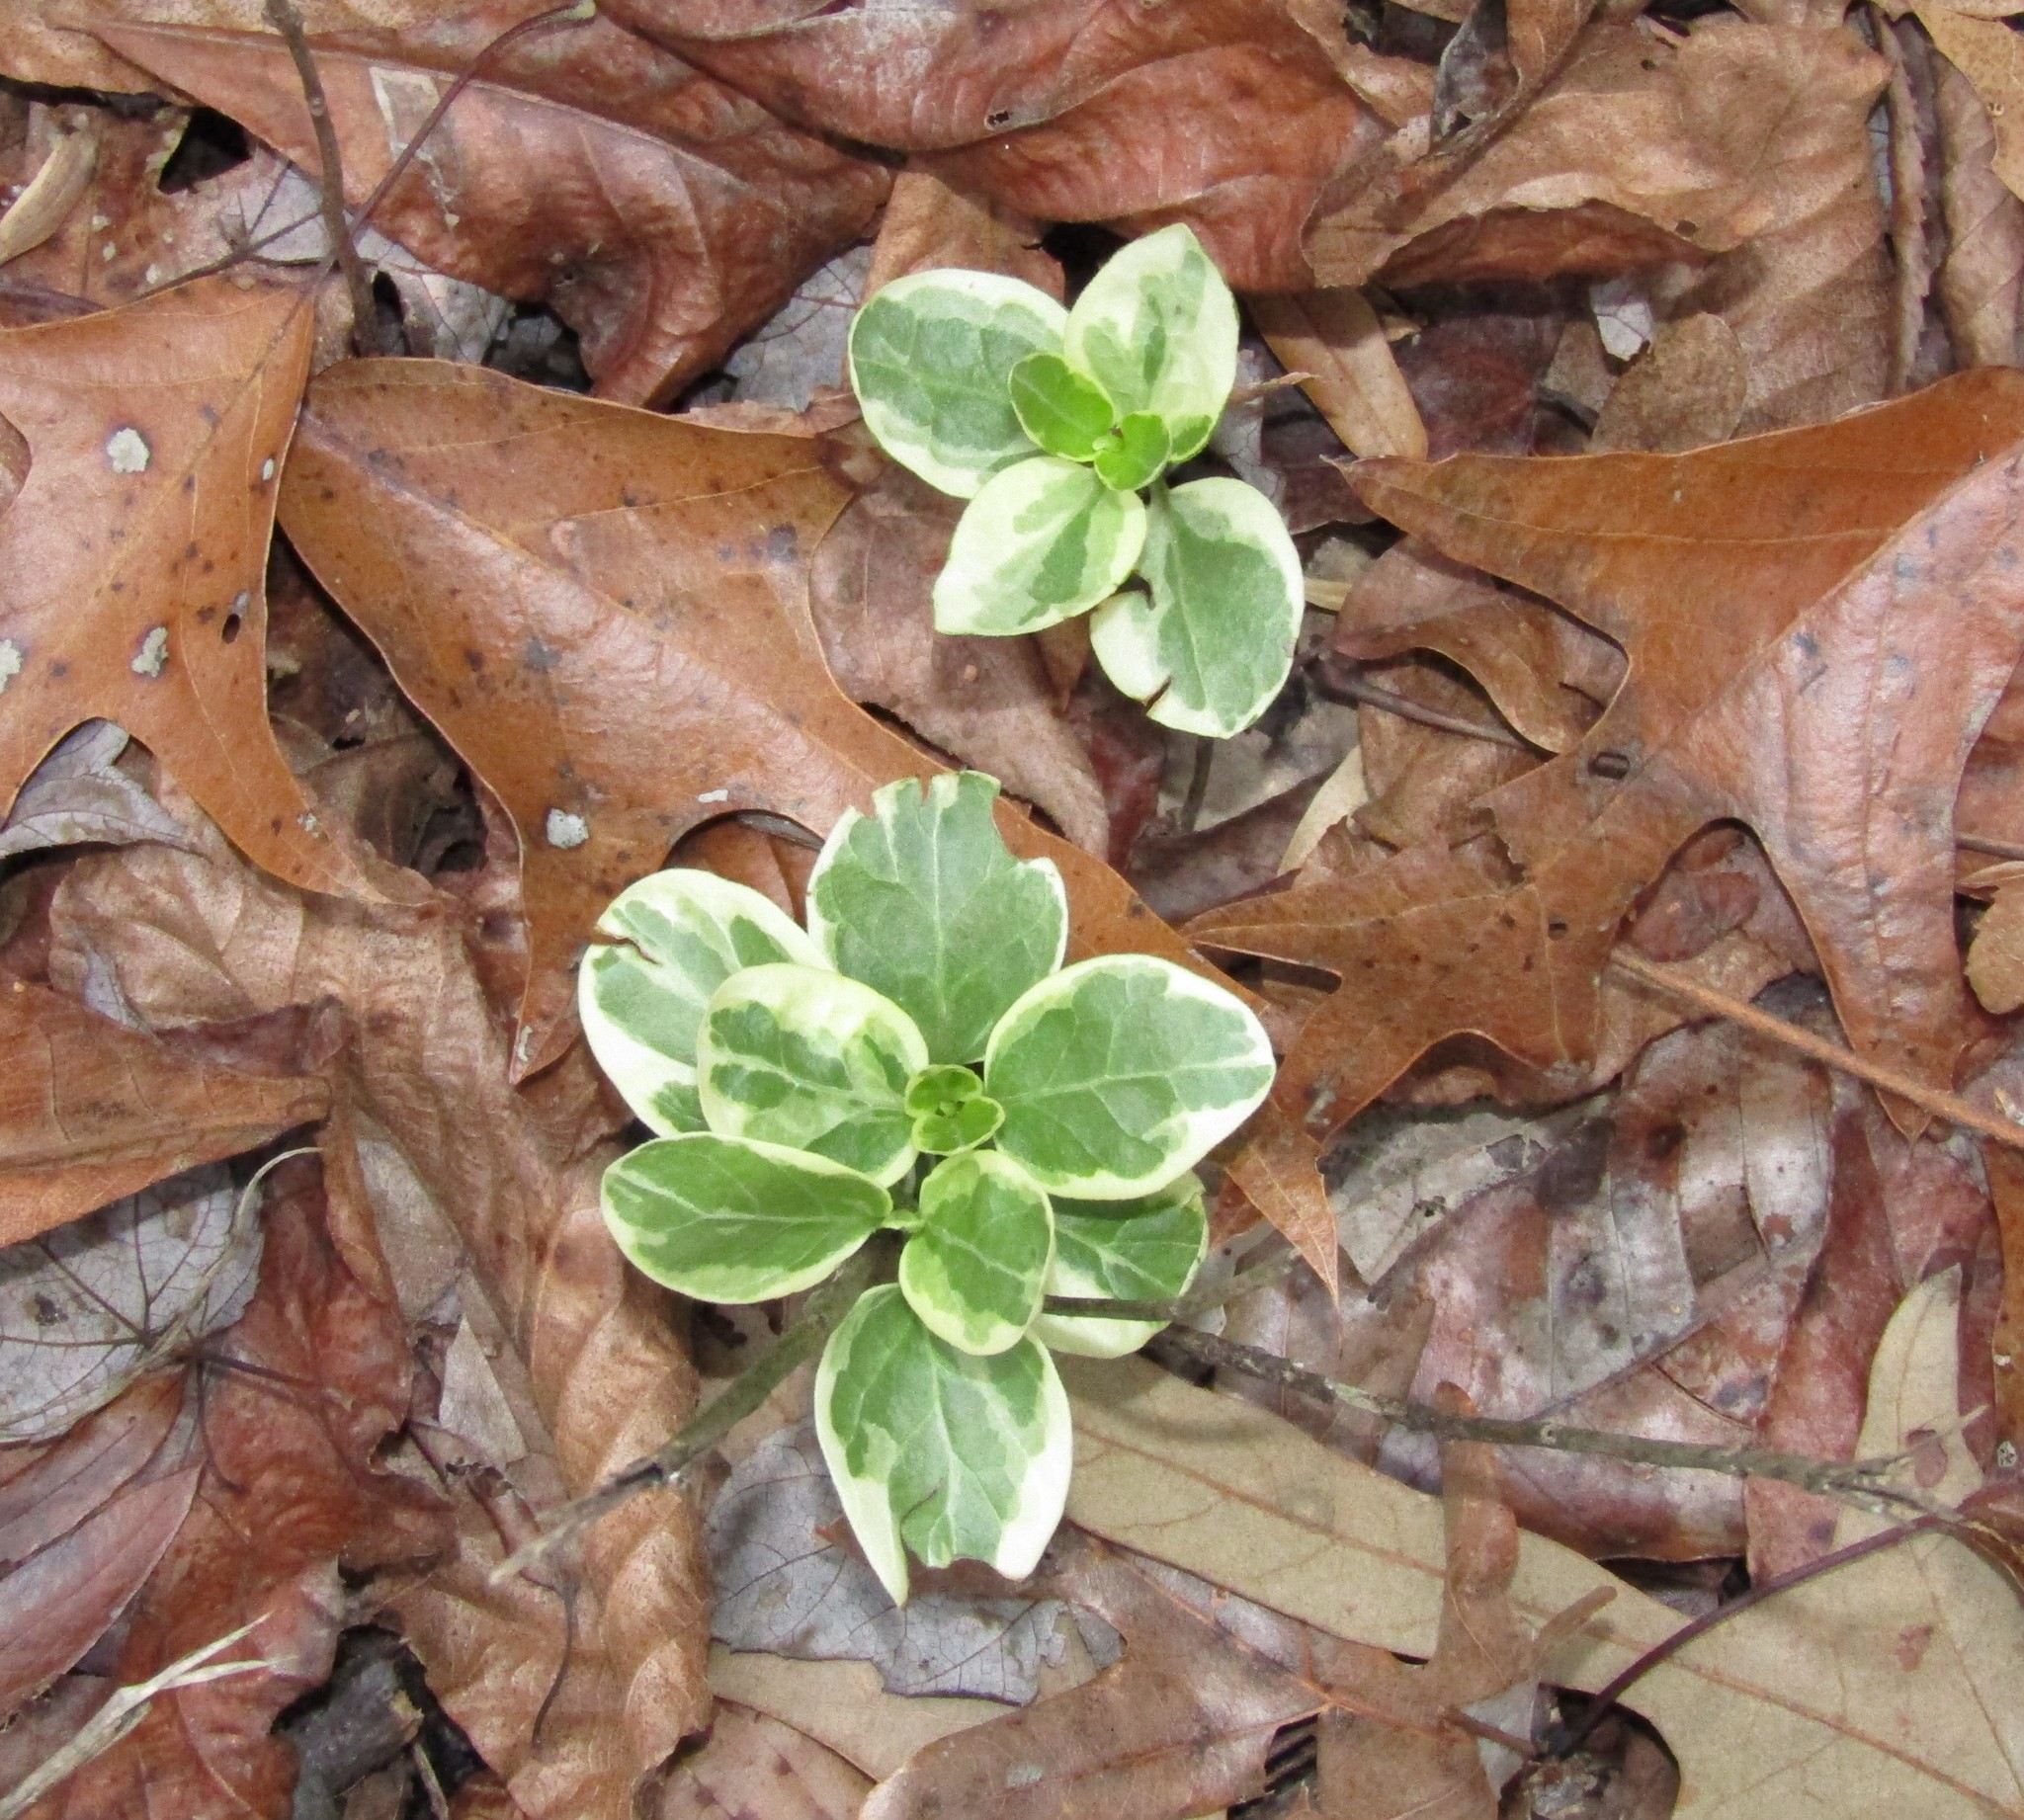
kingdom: Plantae
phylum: Tracheophyta
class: Magnoliopsida
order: Gentianales
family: Apocynaceae
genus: Vinca
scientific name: Vinca major
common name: Greater periwinkle
